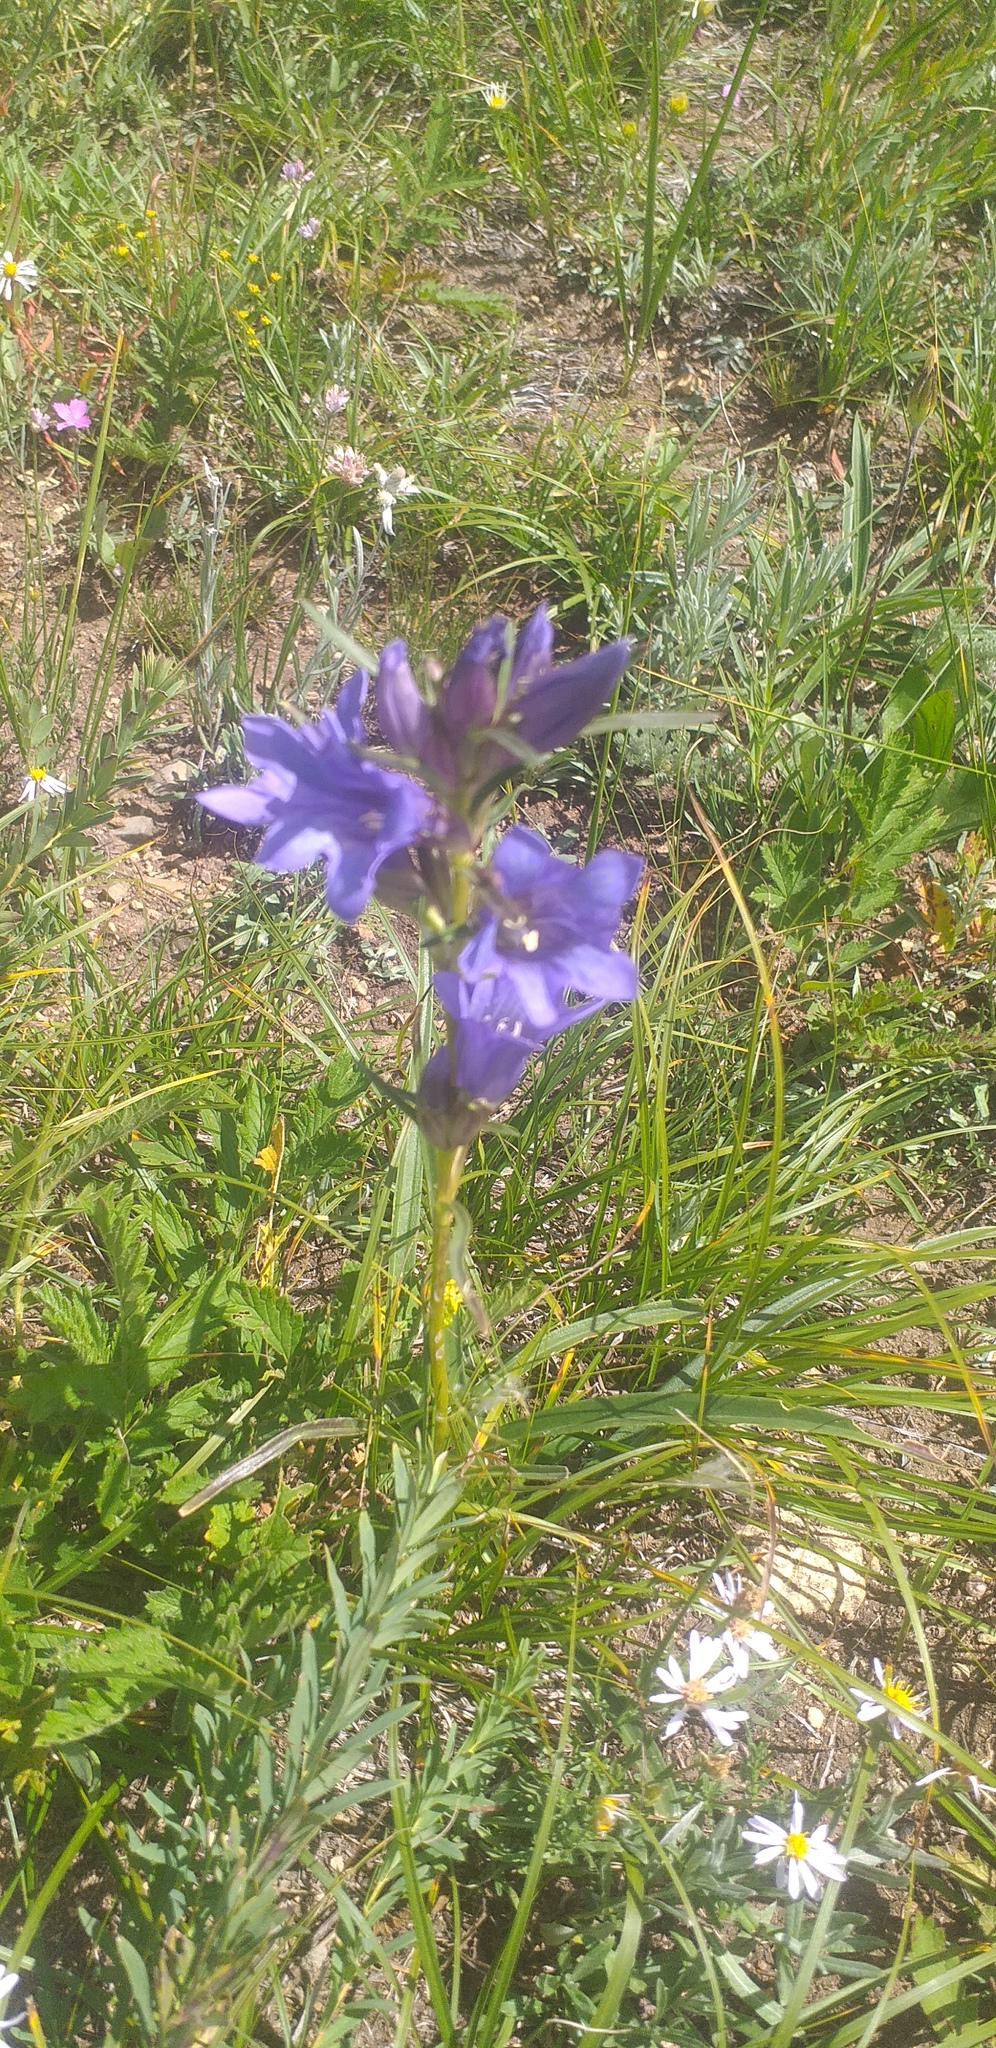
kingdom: Plantae
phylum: Tracheophyta
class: Magnoliopsida
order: Gentianales
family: Gentianaceae
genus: Gentiana
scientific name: Gentiana decumbens
